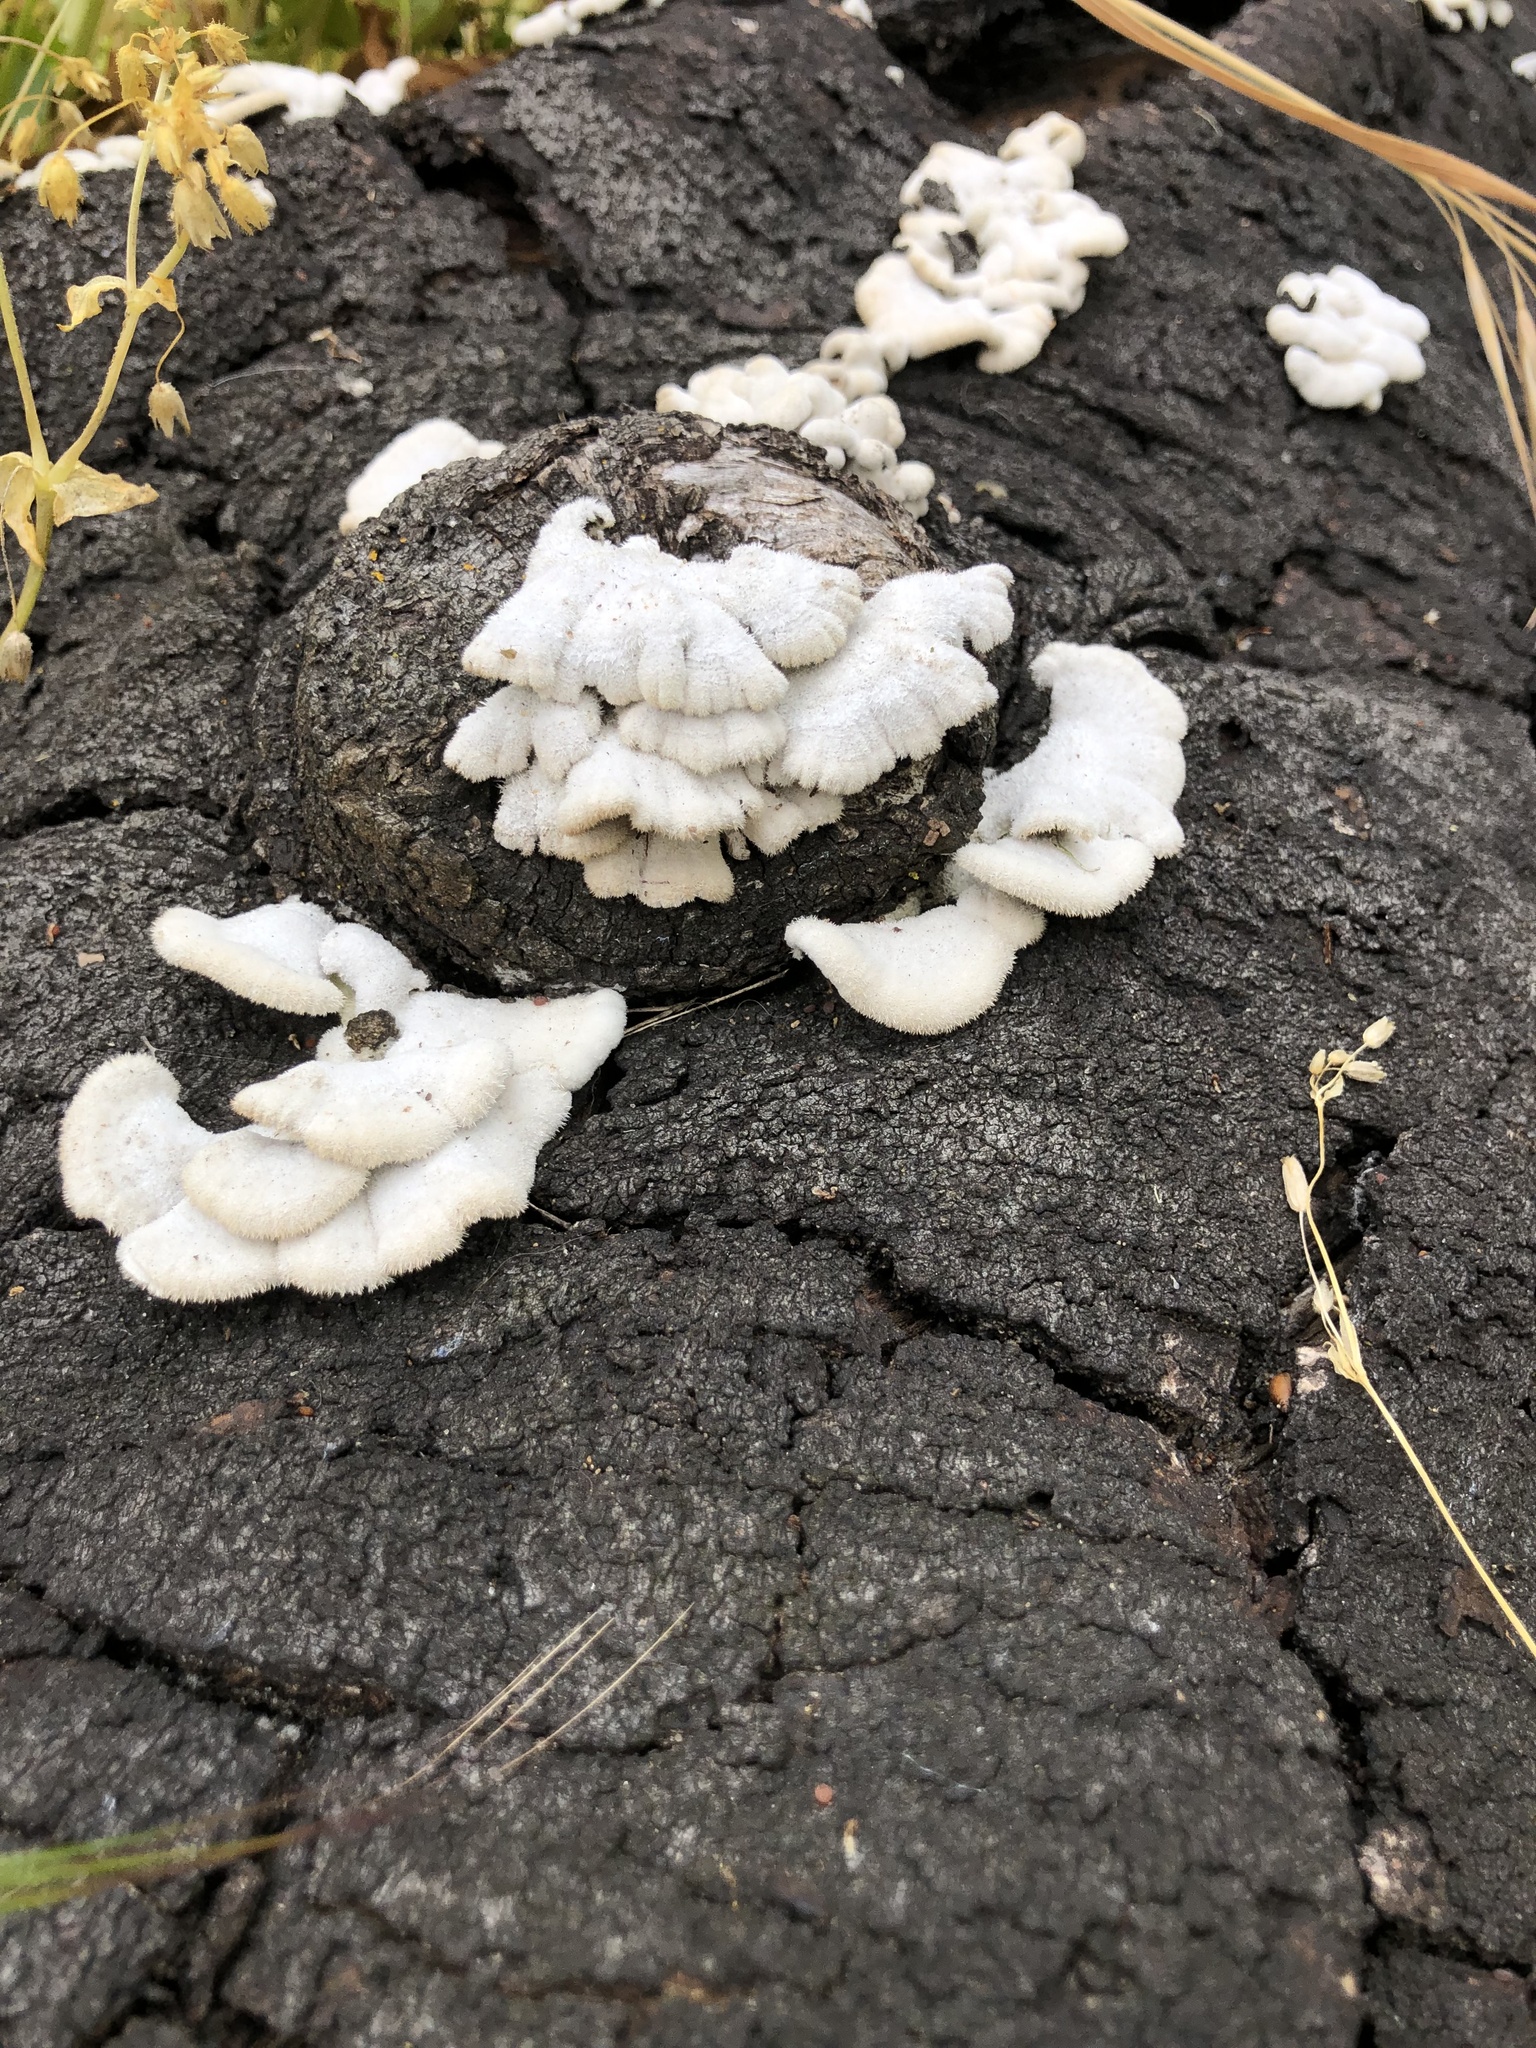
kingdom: Fungi
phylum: Basidiomycota
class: Agaricomycetes
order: Agaricales
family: Schizophyllaceae
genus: Schizophyllum
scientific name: Schizophyllum commune
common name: Common porecrust
